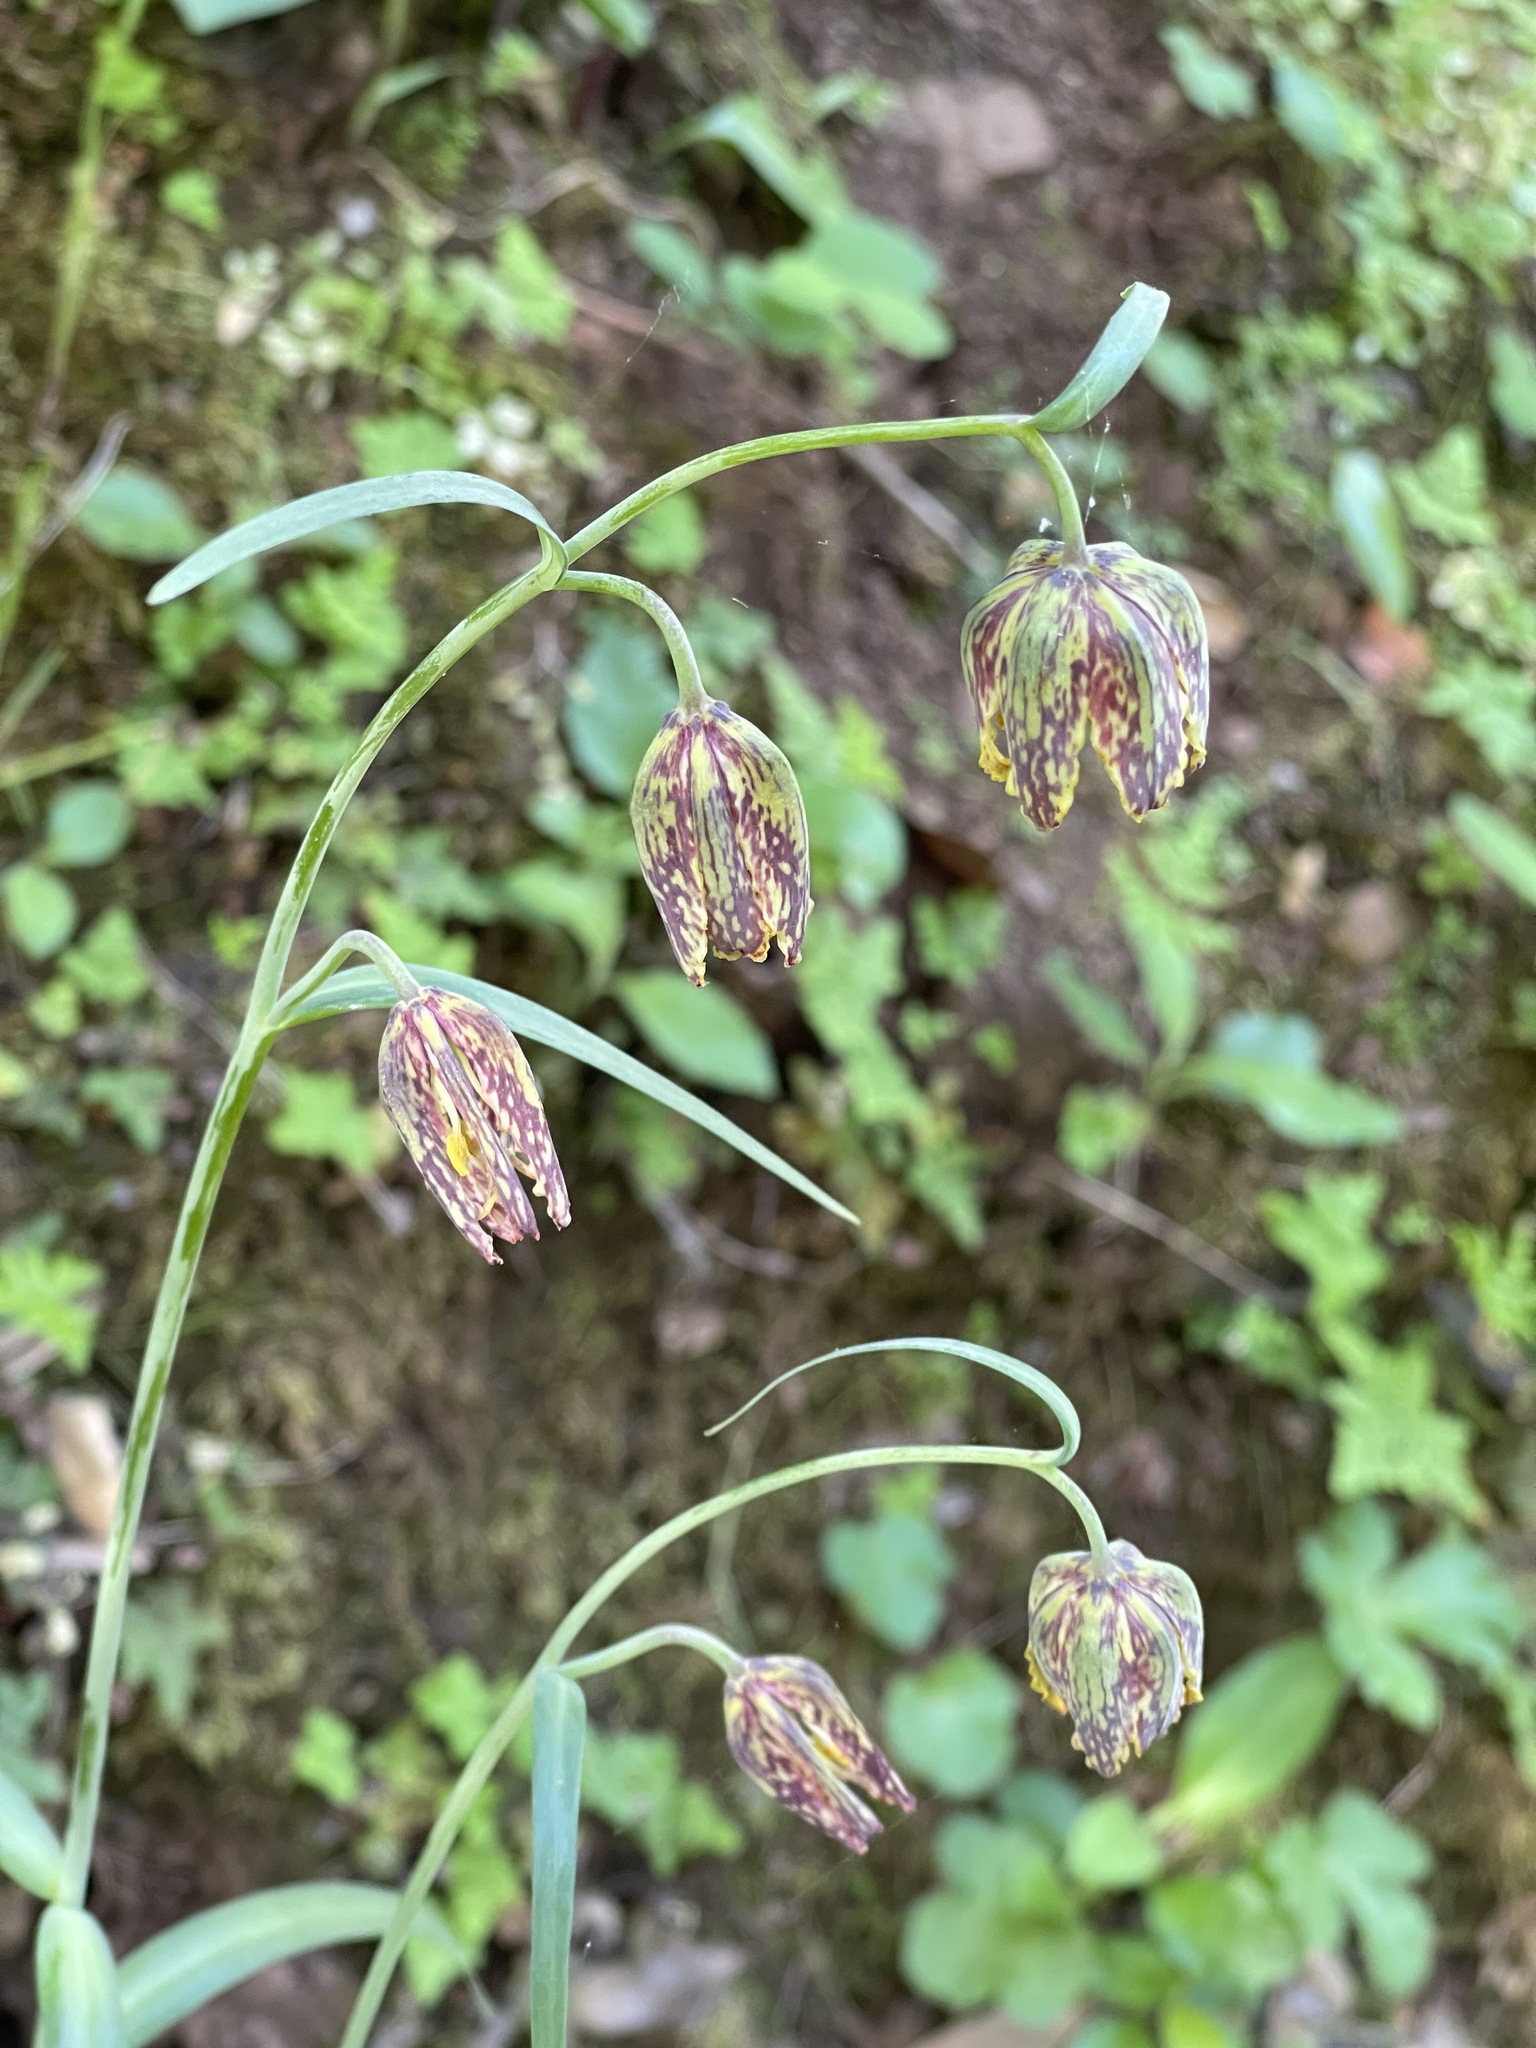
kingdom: Plantae
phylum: Tracheophyta
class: Liliopsida
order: Liliales
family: Liliaceae
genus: Fritillaria
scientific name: Fritillaria affinis
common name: Ojai fritillary
